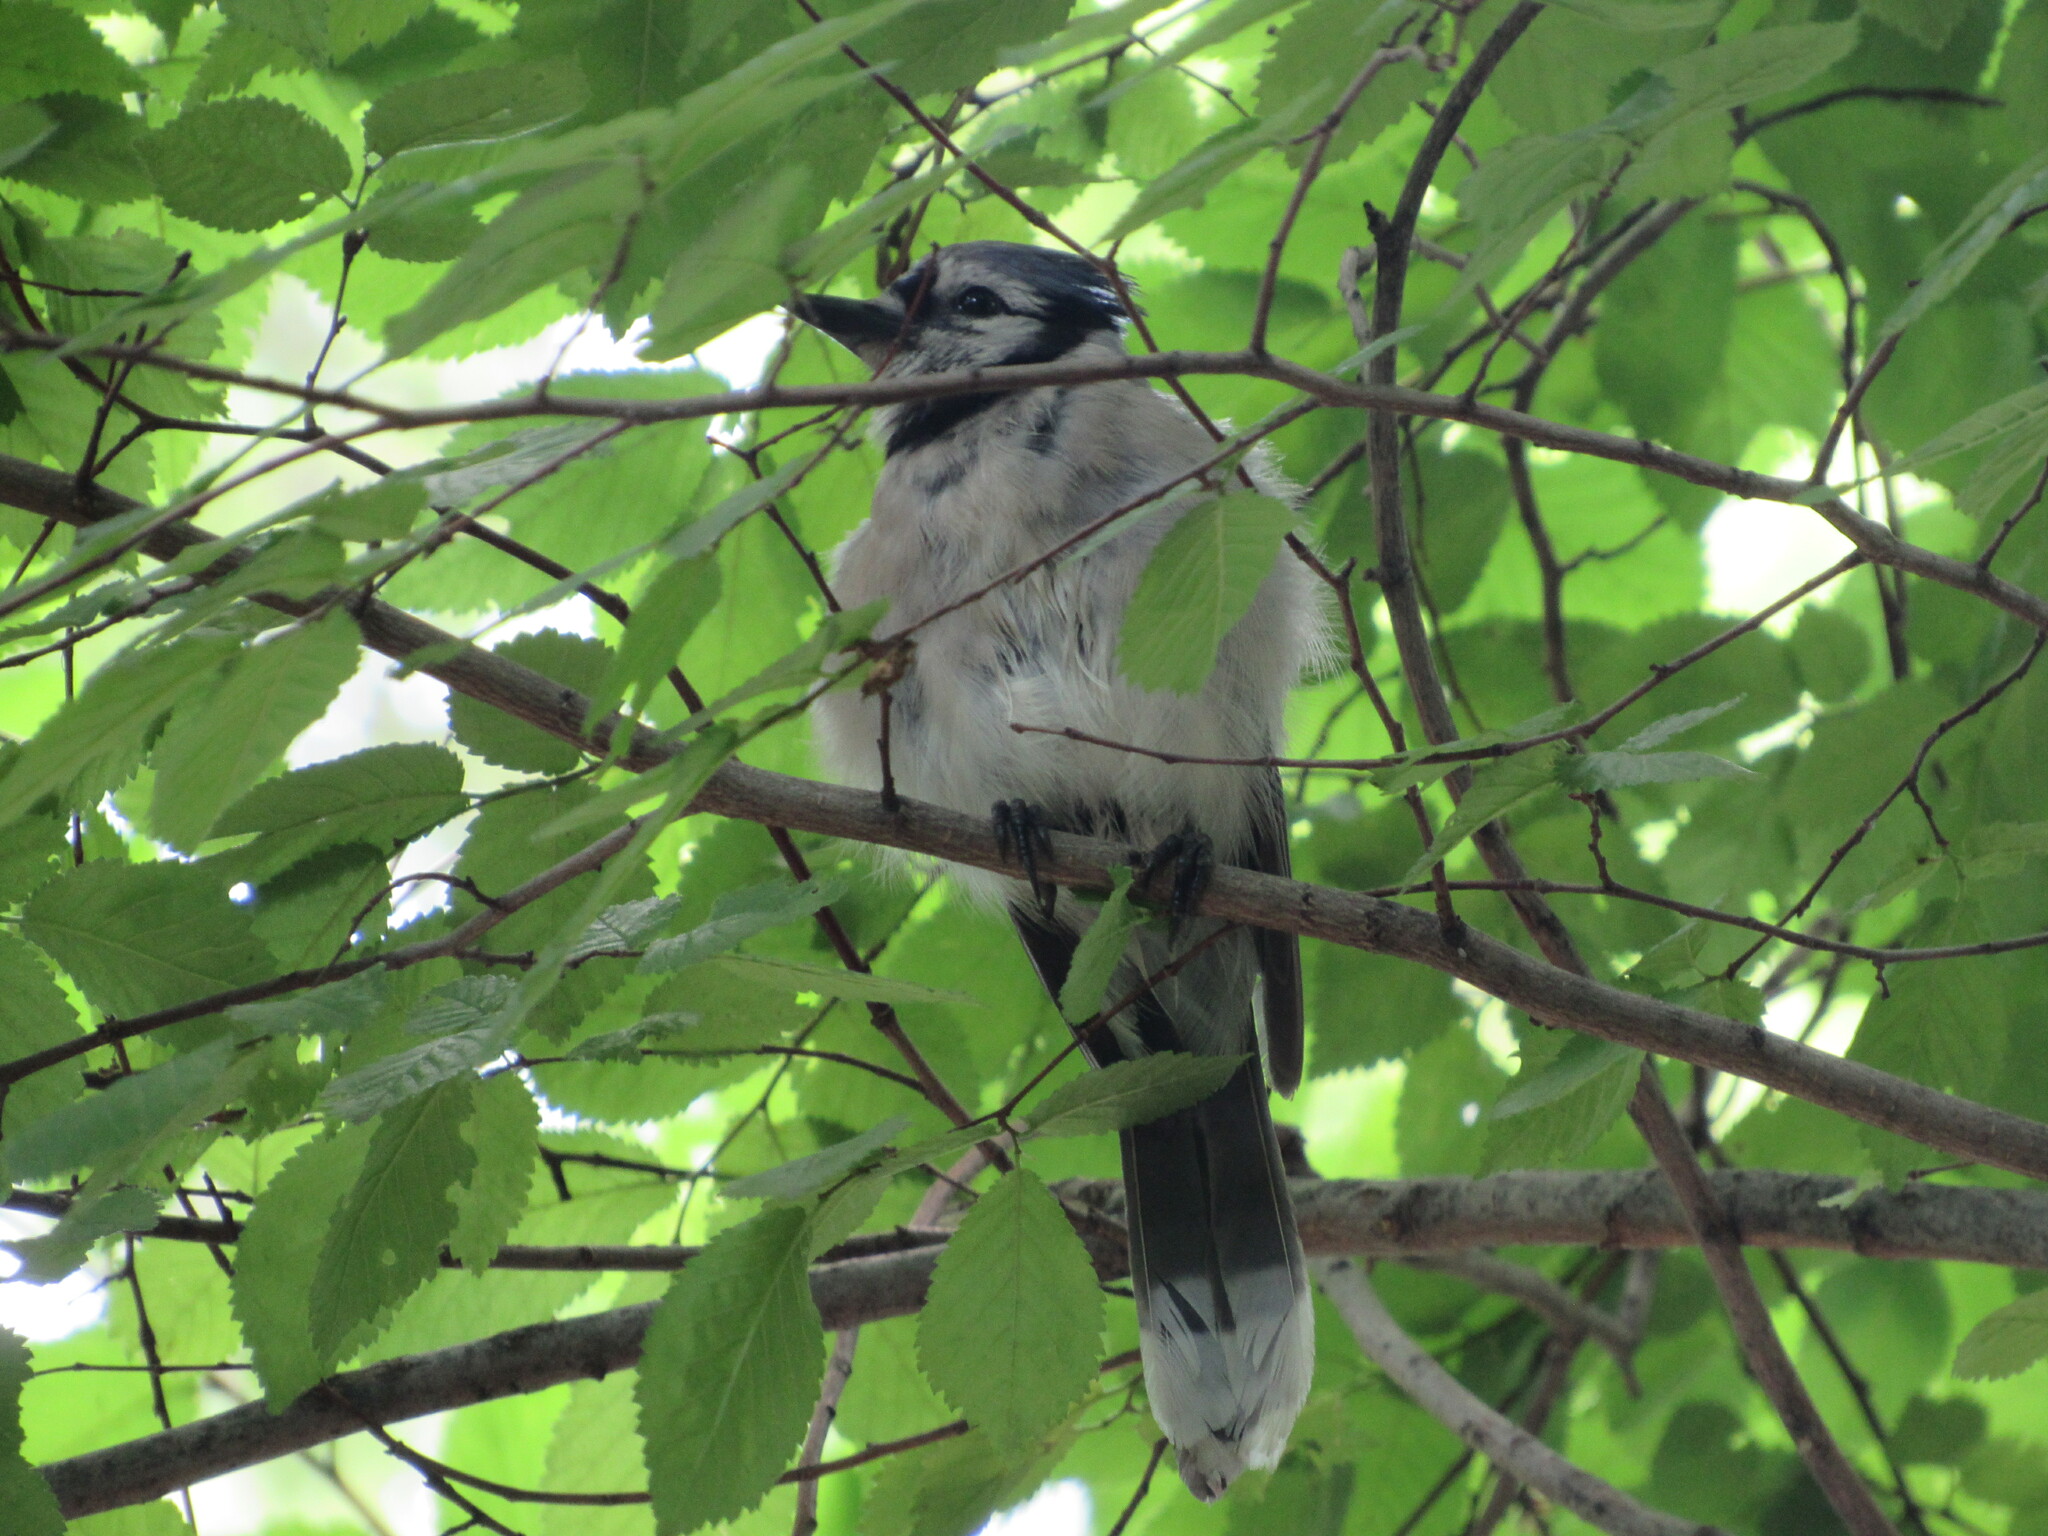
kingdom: Animalia
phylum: Chordata
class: Aves
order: Passeriformes
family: Corvidae
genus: Cyanocitta
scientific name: Cyanocitta cristata
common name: Blue jay
